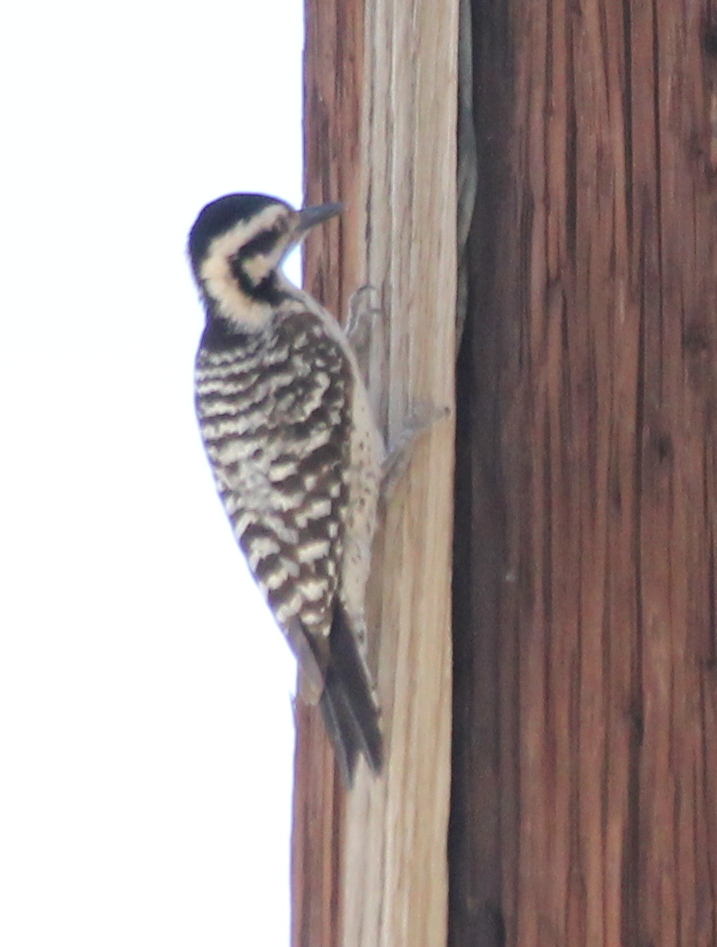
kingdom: Animalia
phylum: Chordata
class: Aves
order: Piciformes
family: Picidae
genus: Dryobates
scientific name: Dryobates scalaris
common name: Ladder-backed woodpecker
